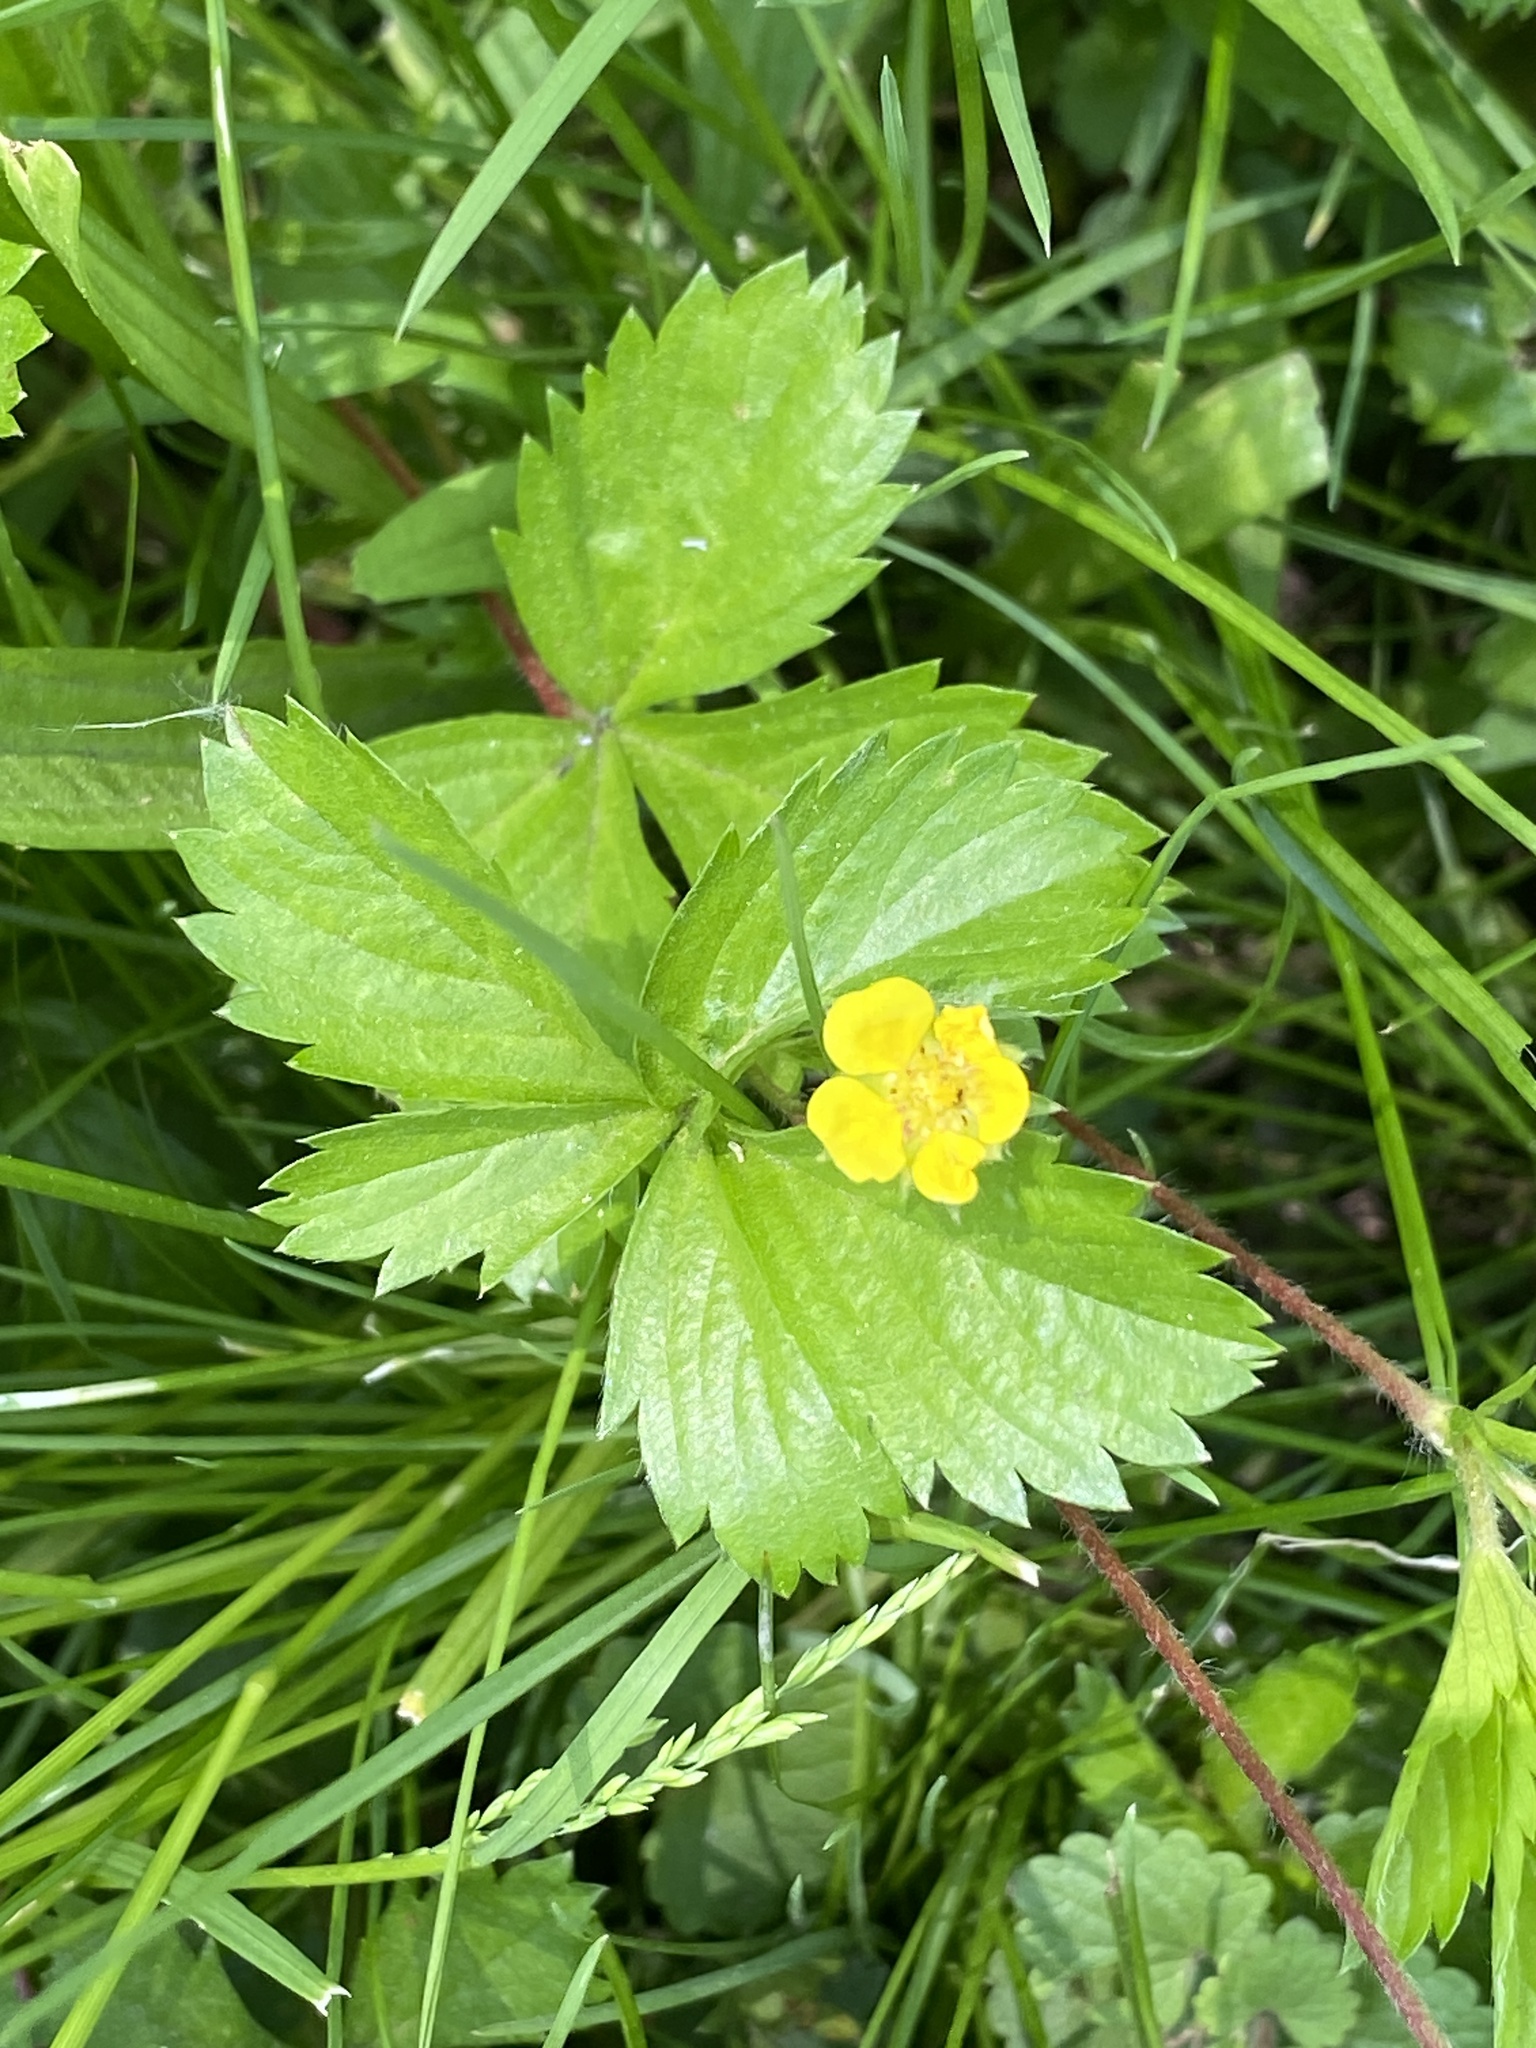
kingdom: Plantae
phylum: Tracheophyta
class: Magnoliopsida
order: Rosales
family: Rosaceae
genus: Potentilla
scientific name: Potentilla canadensis
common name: Canada cinquefoil
